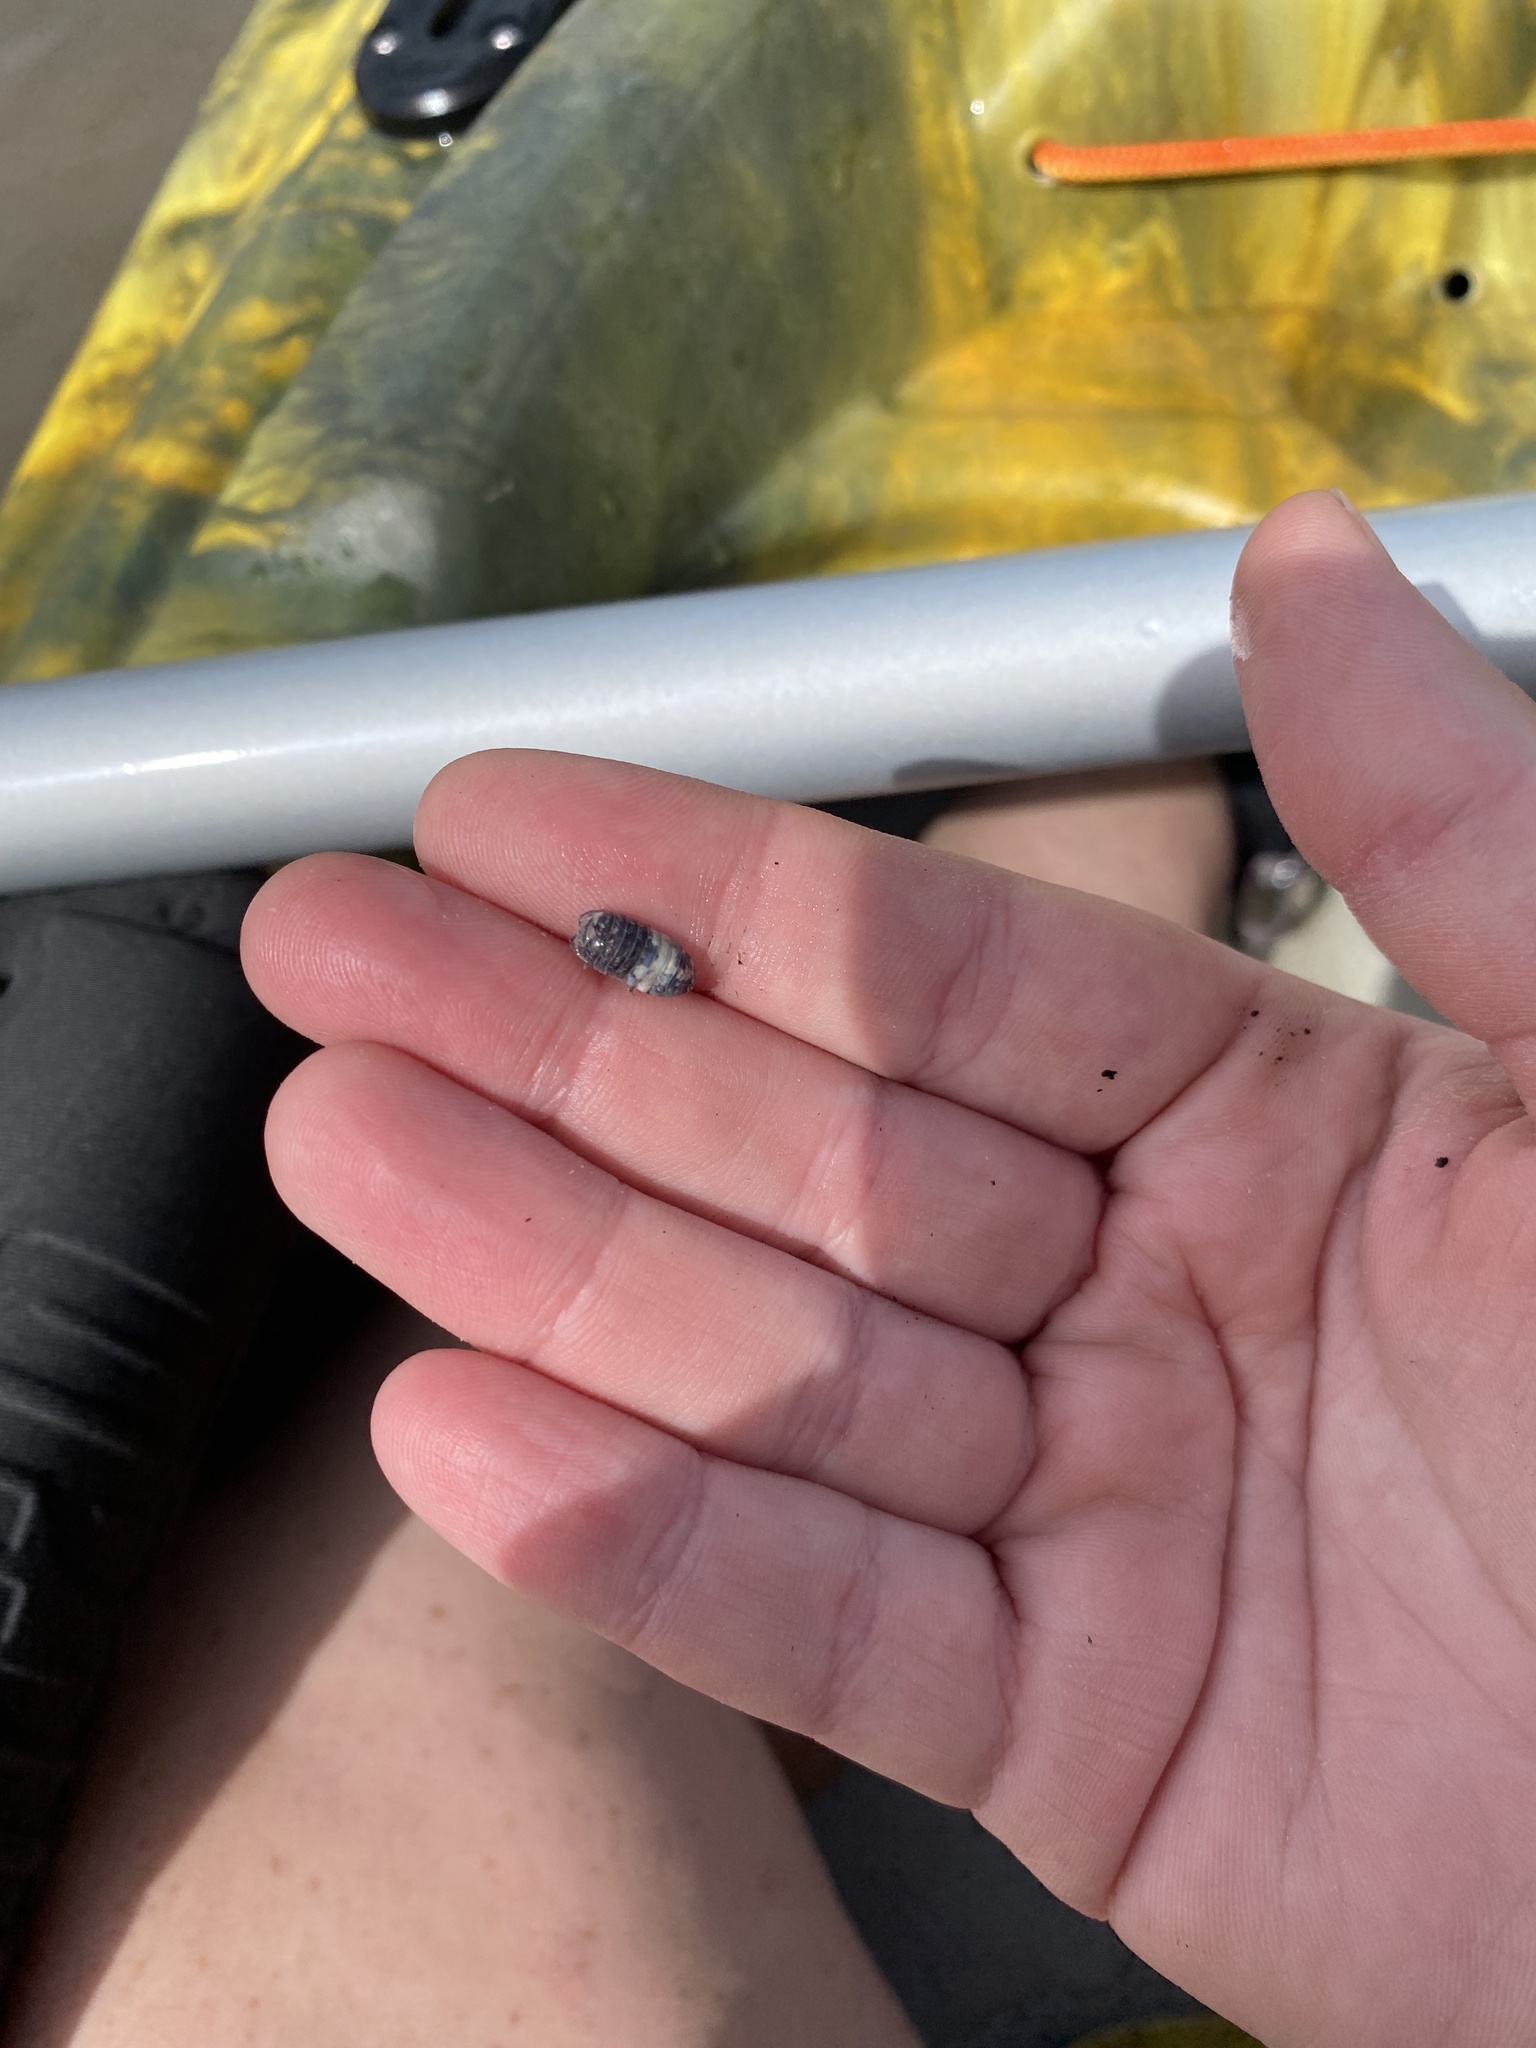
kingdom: Animalia
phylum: Arthropoda
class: Malacostraca
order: Isopoda
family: Armadillidiidae
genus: Armadillidium
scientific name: Armadillidium vulgare
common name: Common pill woodlouse
